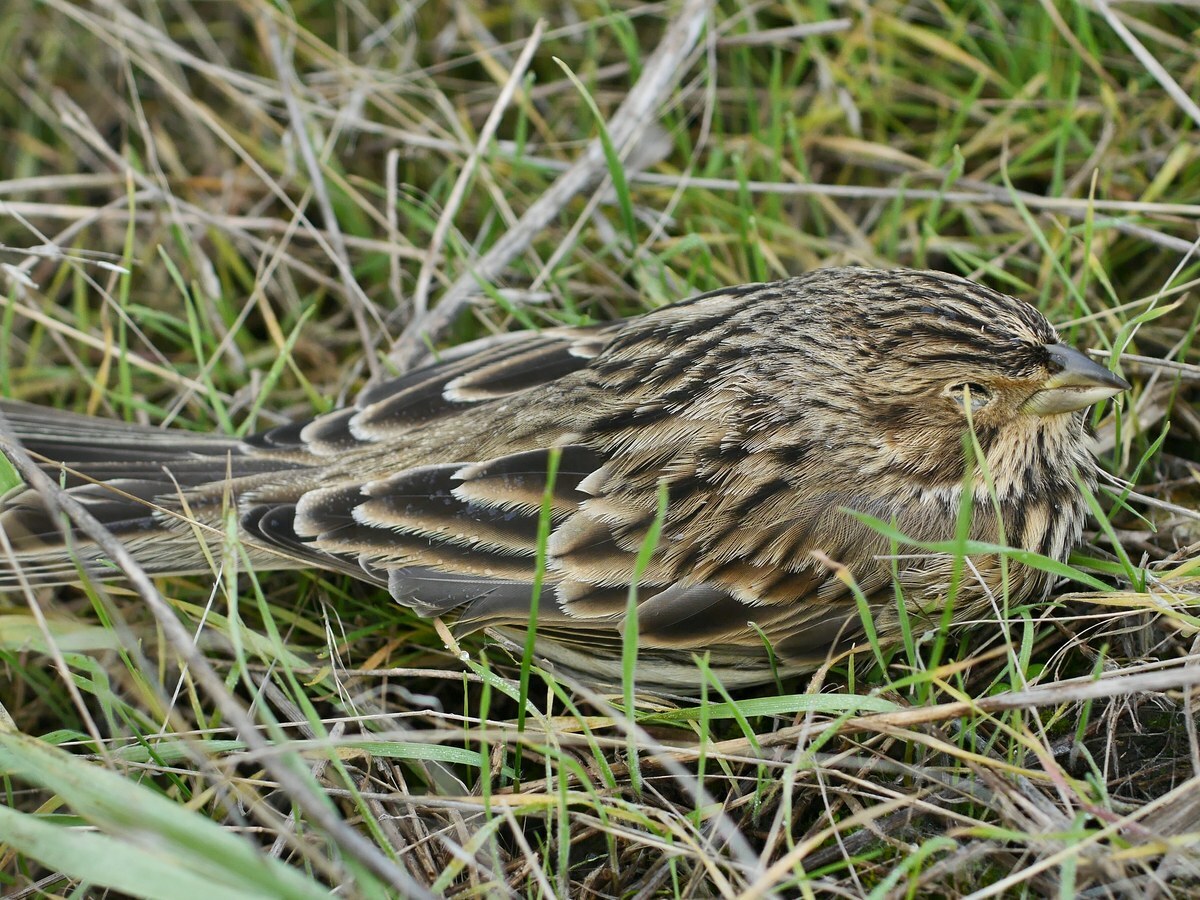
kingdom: Animalia
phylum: Chordata
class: Aves
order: Passeriformes
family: Emberizidae
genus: Emberiza
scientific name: Emberiza calandra
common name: Corn bunting
